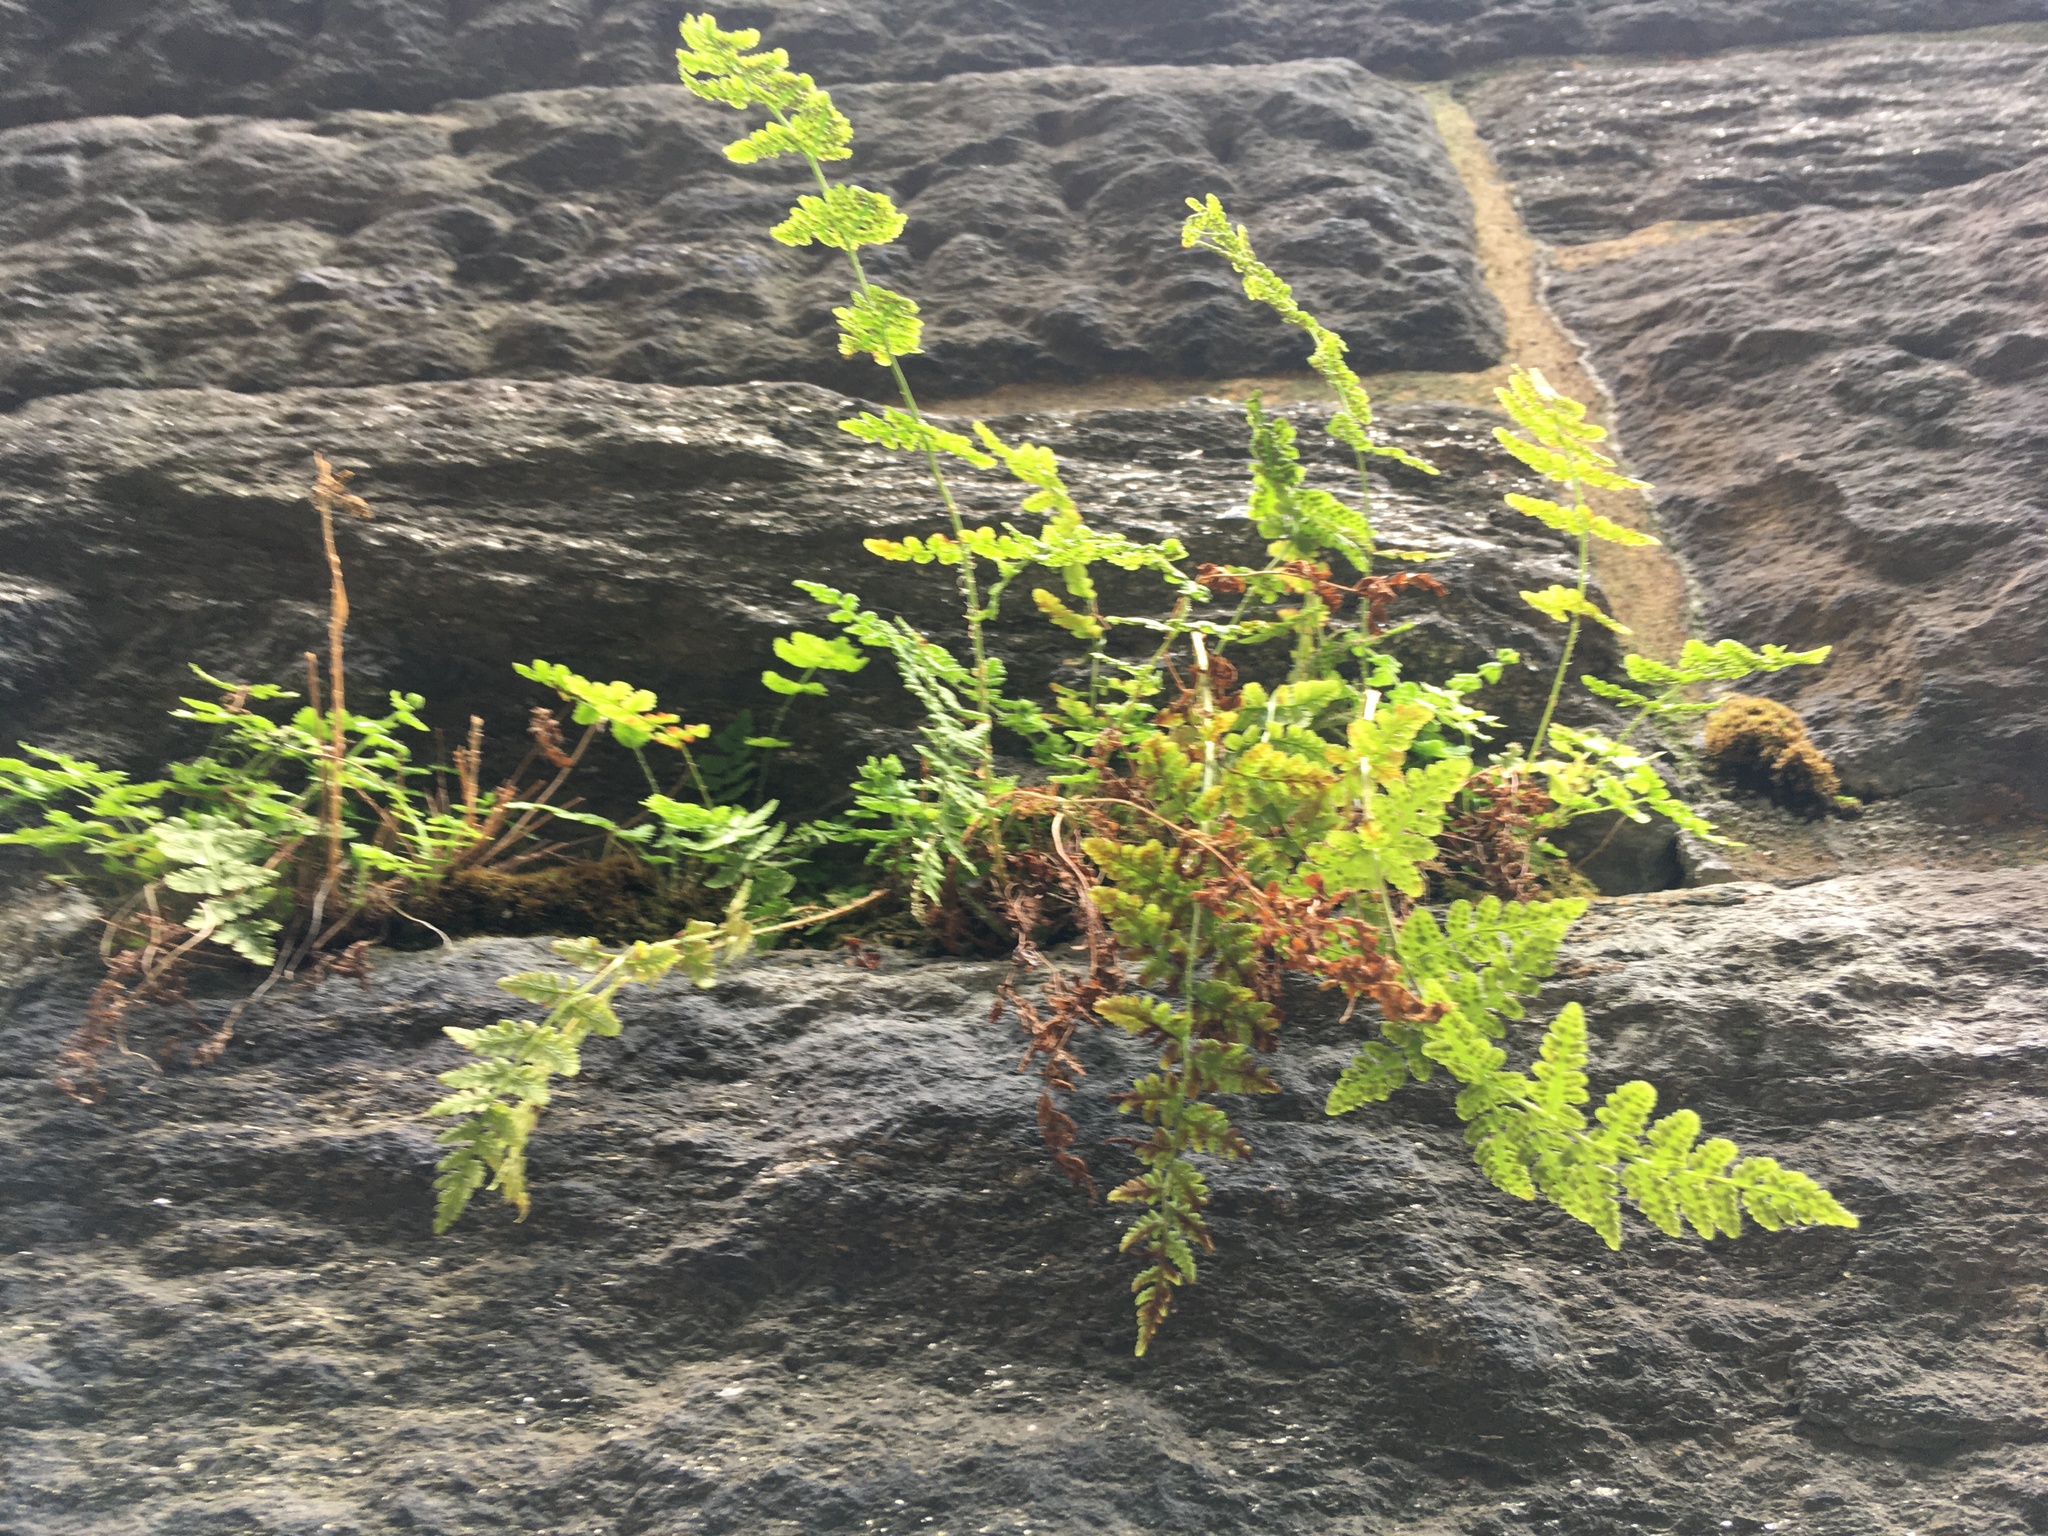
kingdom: Plantae
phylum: Tracheophyta
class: Polypodiopsida
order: Polypodiales
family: Woodsiaceae
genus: Physematium
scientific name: Physematium obtusum
